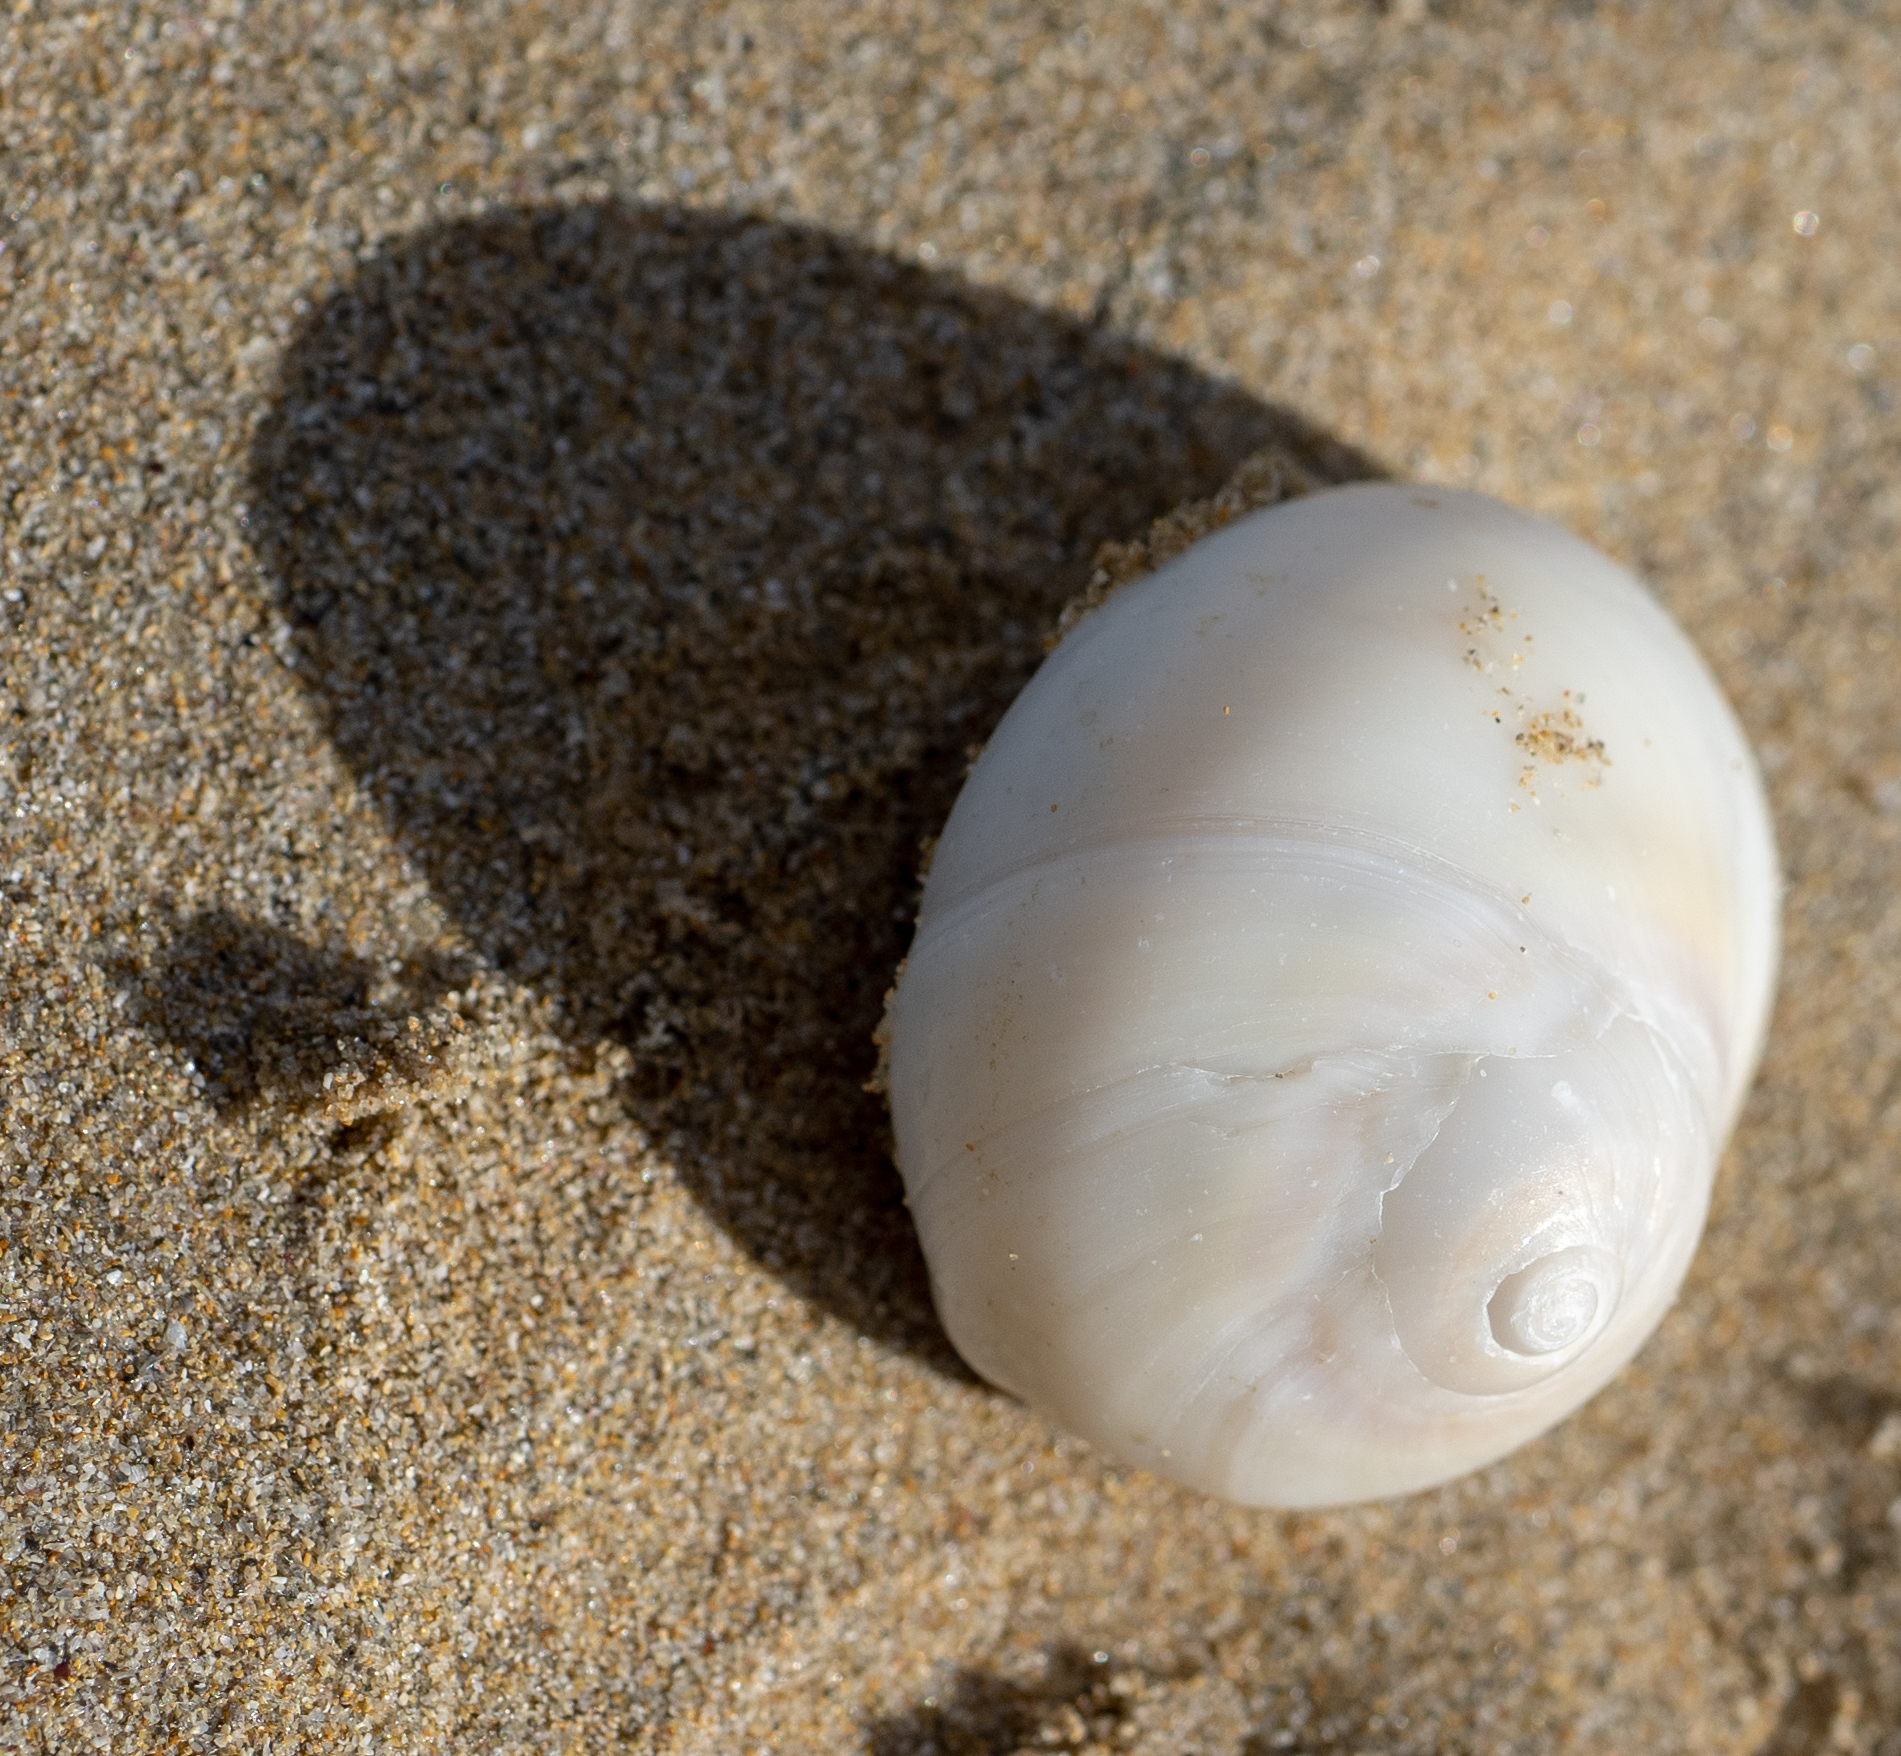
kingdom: Animalia
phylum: Mollusca
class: Gastropoda
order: Littorinimorpha
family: Naticidae
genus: Conuber
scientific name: Conuber incei
